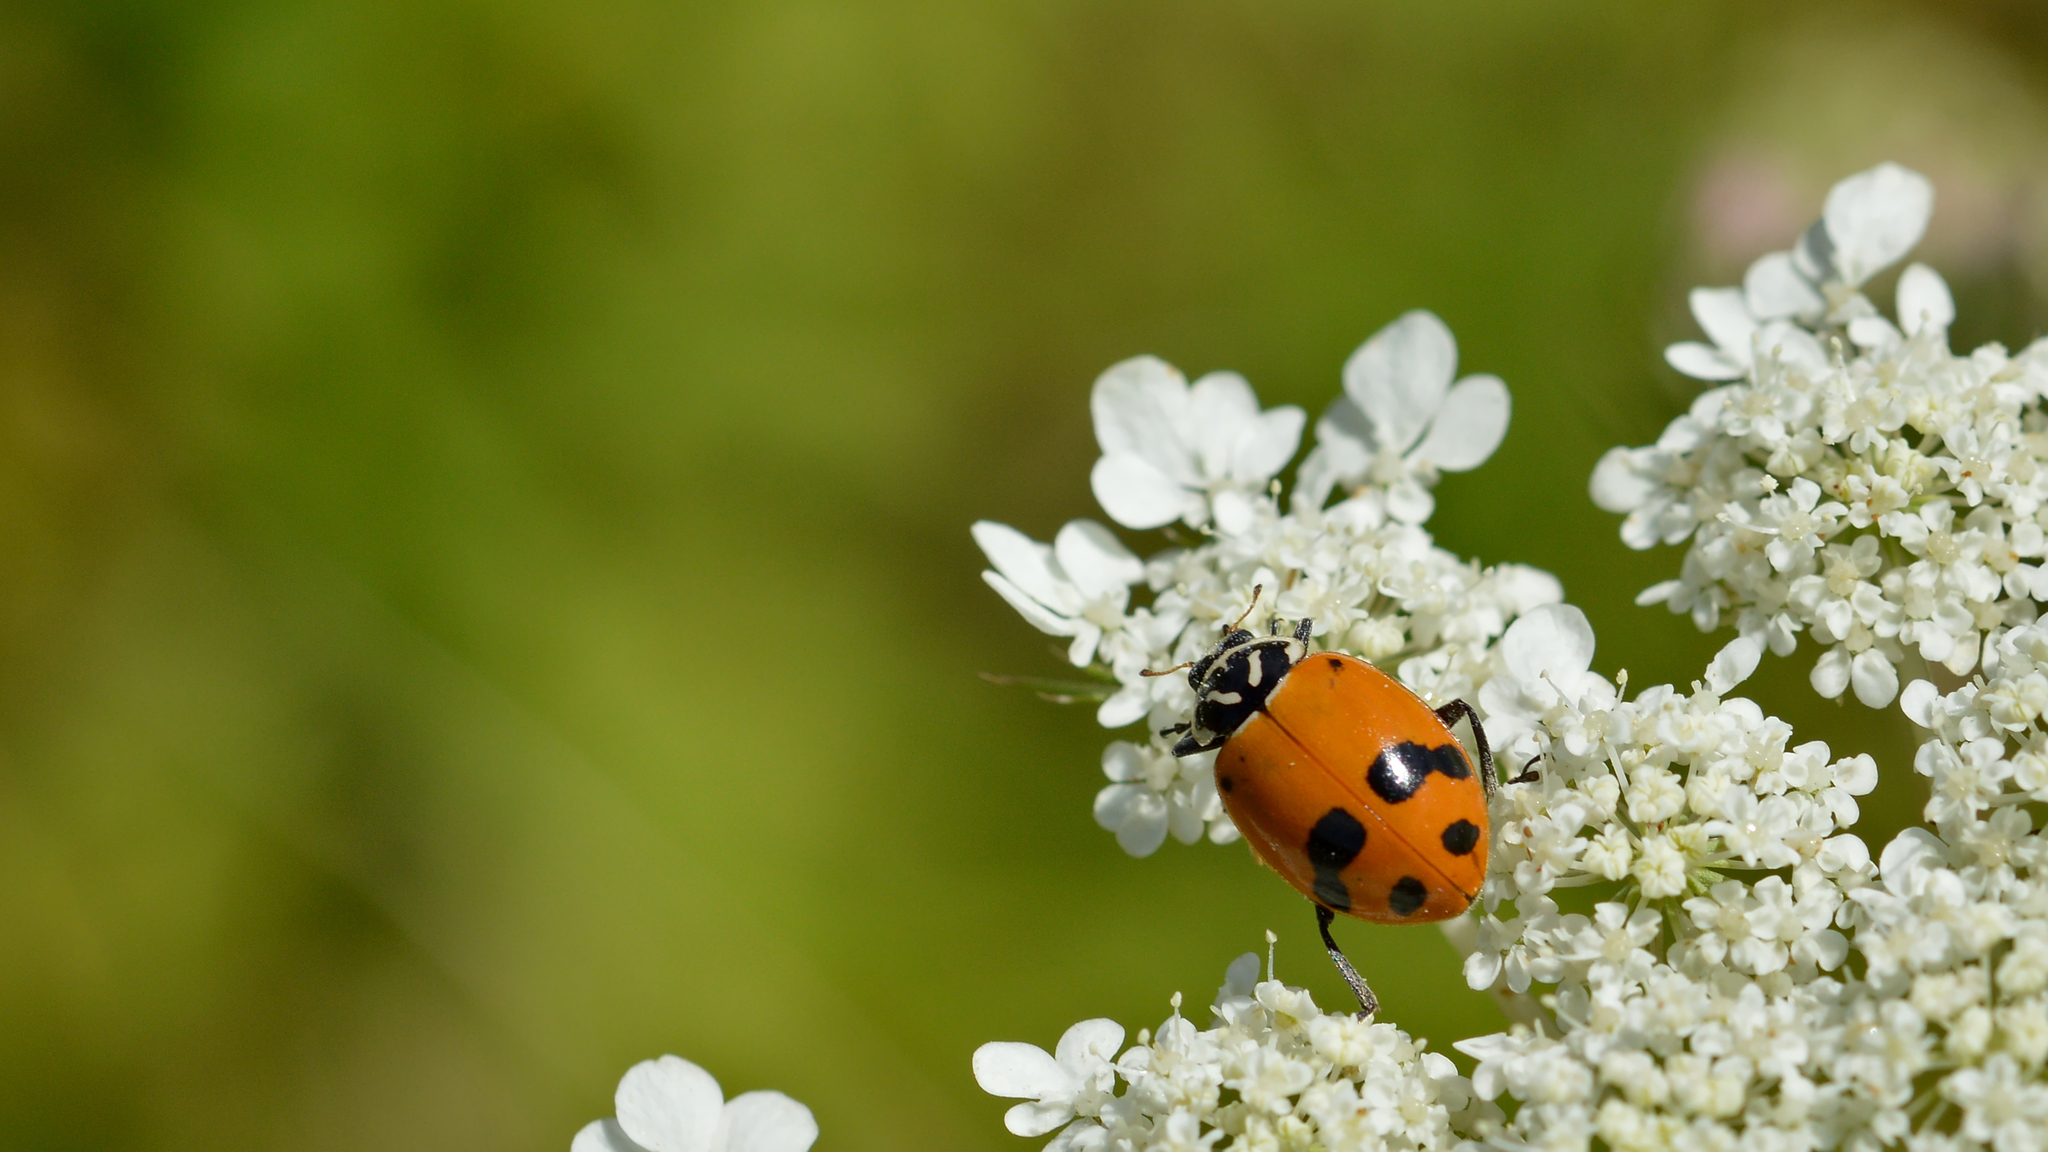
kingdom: Animalia
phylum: Arthropoda
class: Insecta
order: Coleoptera
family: Coccinellidae
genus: Hippodamia
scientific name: Hippodamia glacialis
